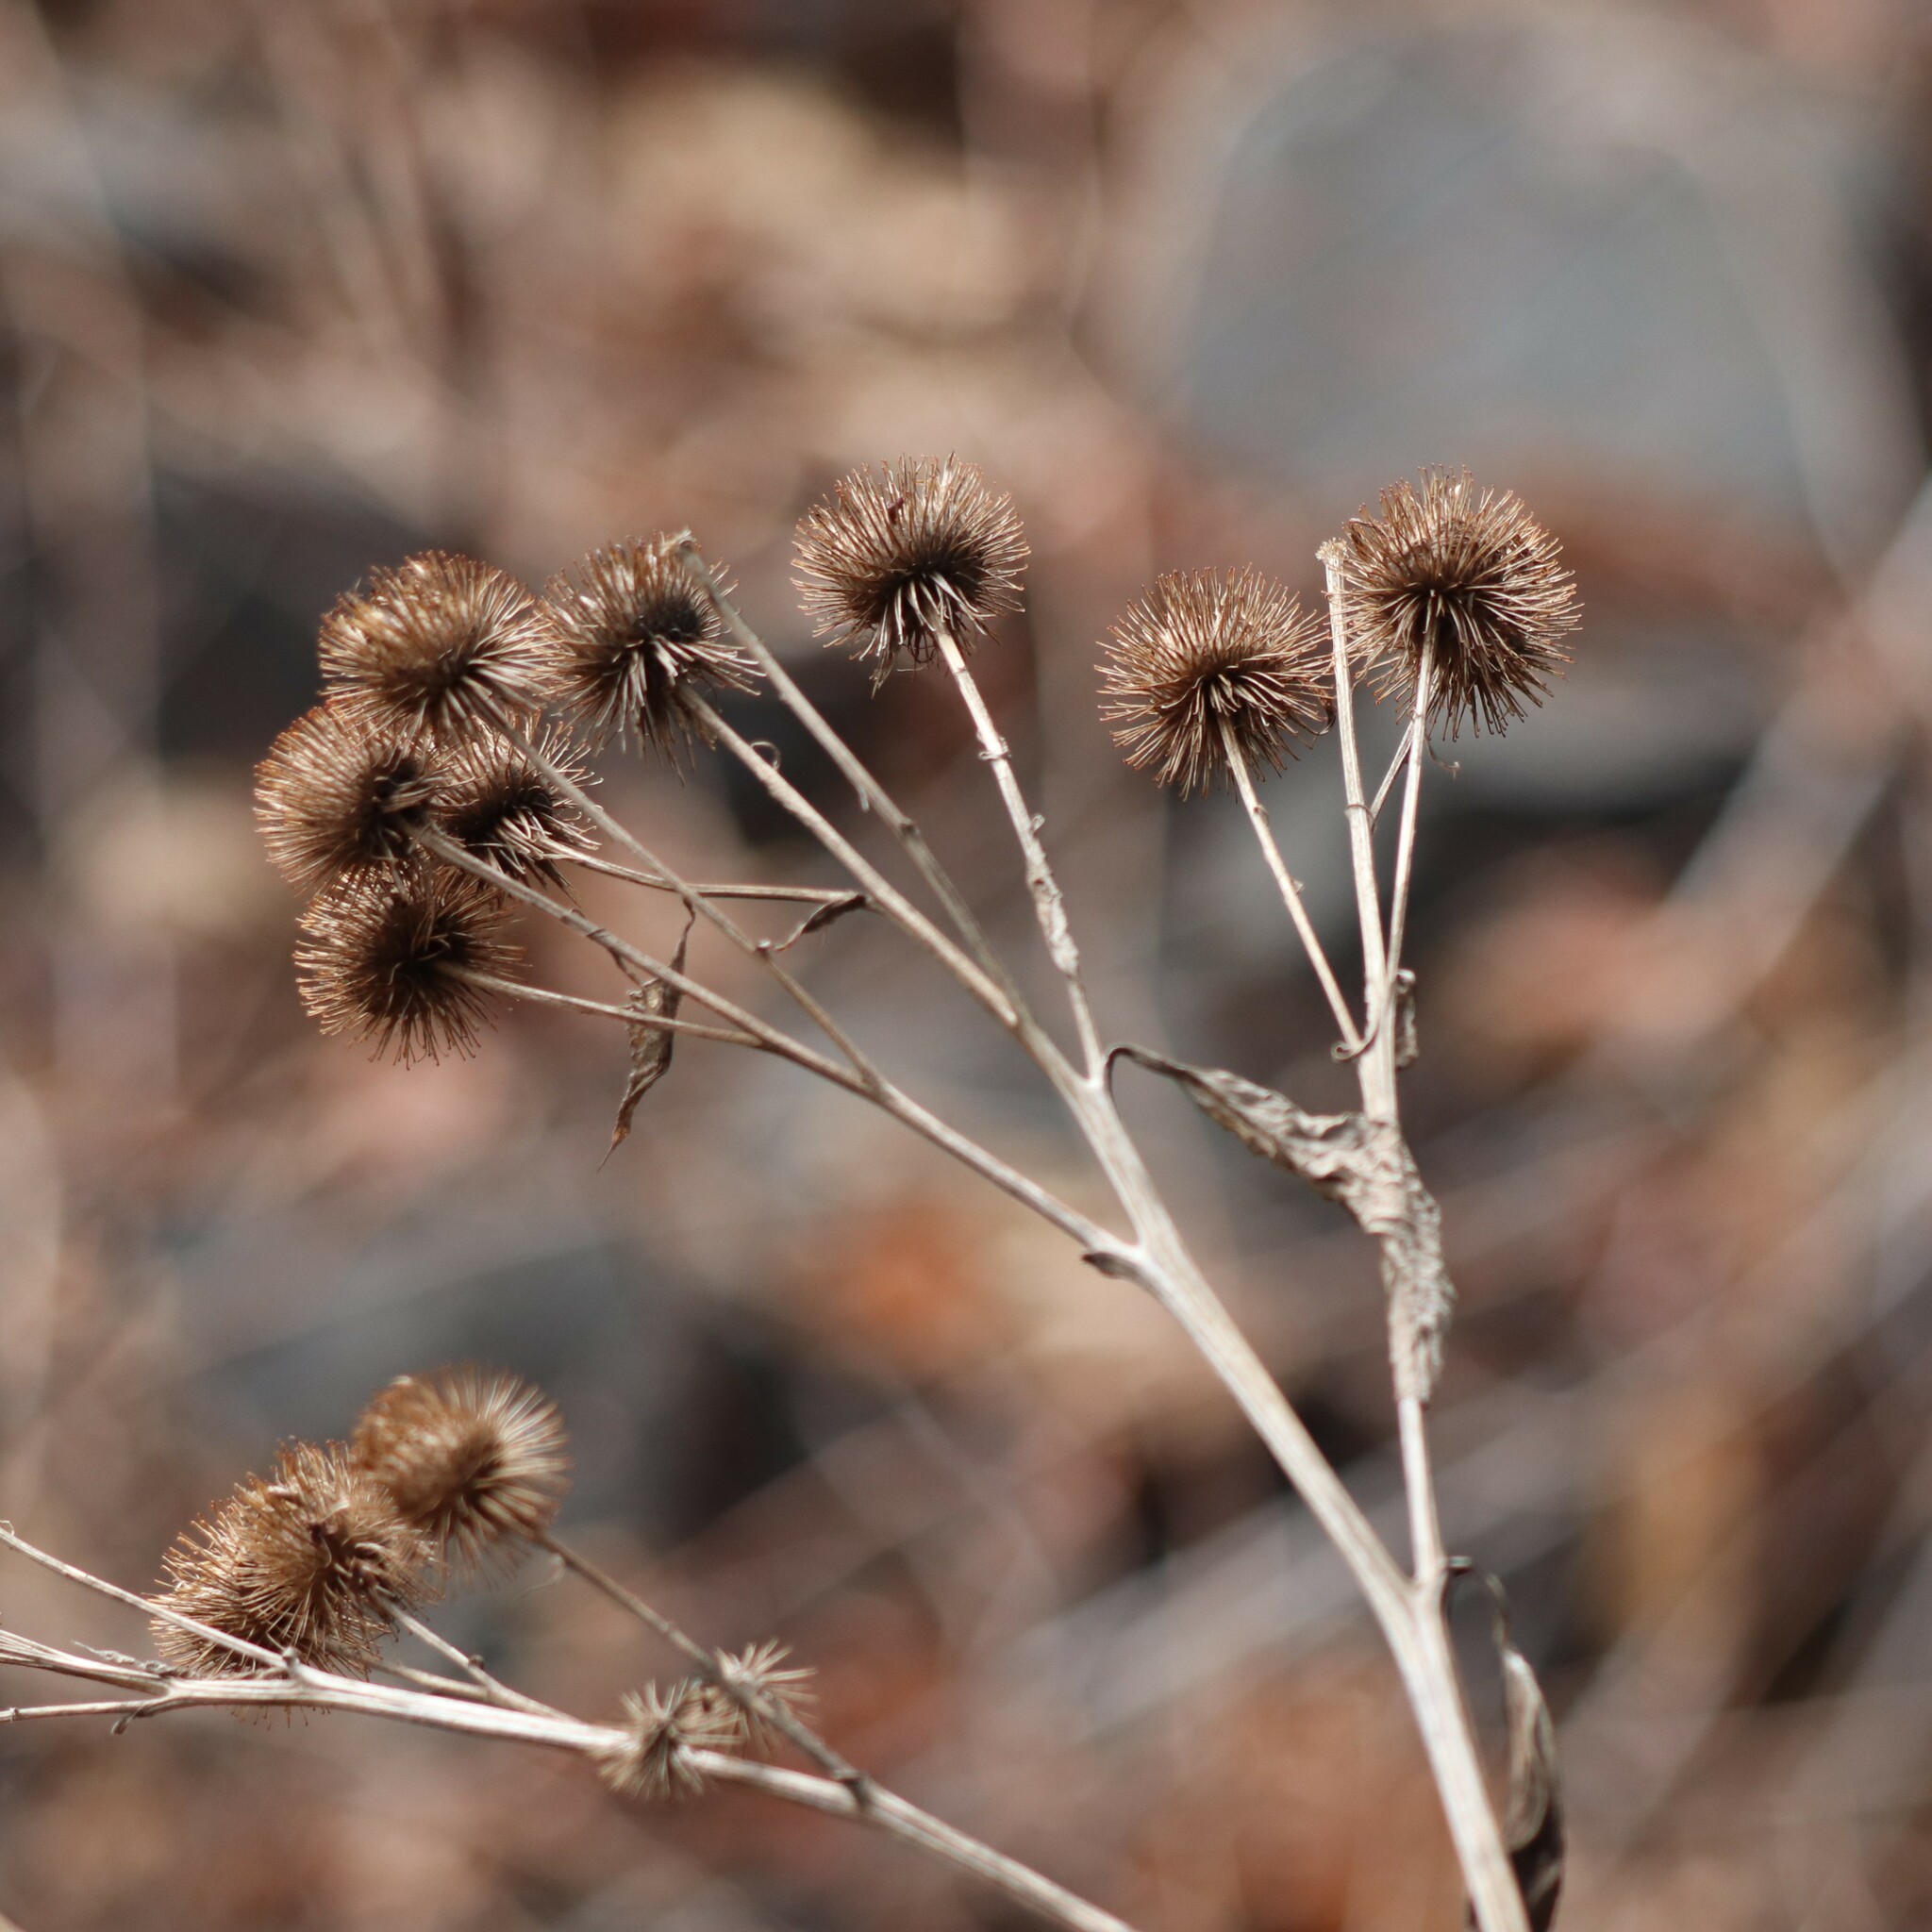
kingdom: Plantae
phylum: Tracheophyta
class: Magnoliopsida
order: Asterales
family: Asteraceae
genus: Arctium
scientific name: Arctium lappa
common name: Greater burdock
